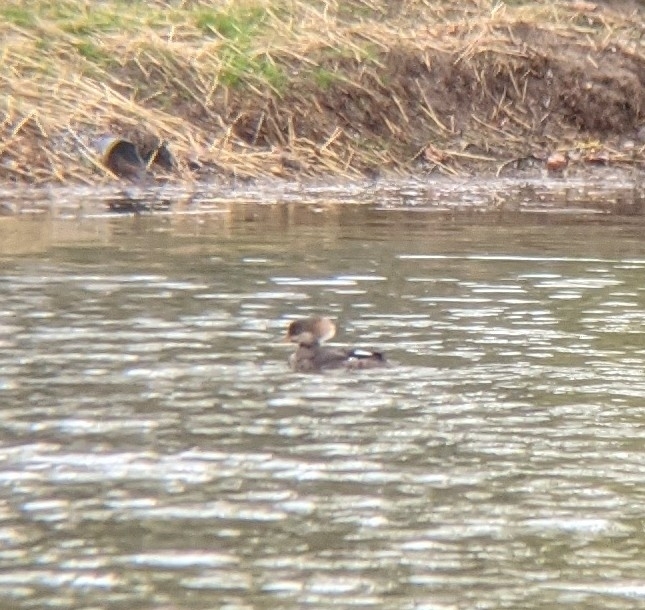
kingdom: Animalia
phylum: Chordata
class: Aves
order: Anseriformes
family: Anatidae
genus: Lophodytes
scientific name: Lophodytes cucullatus
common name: Hooded merganser
